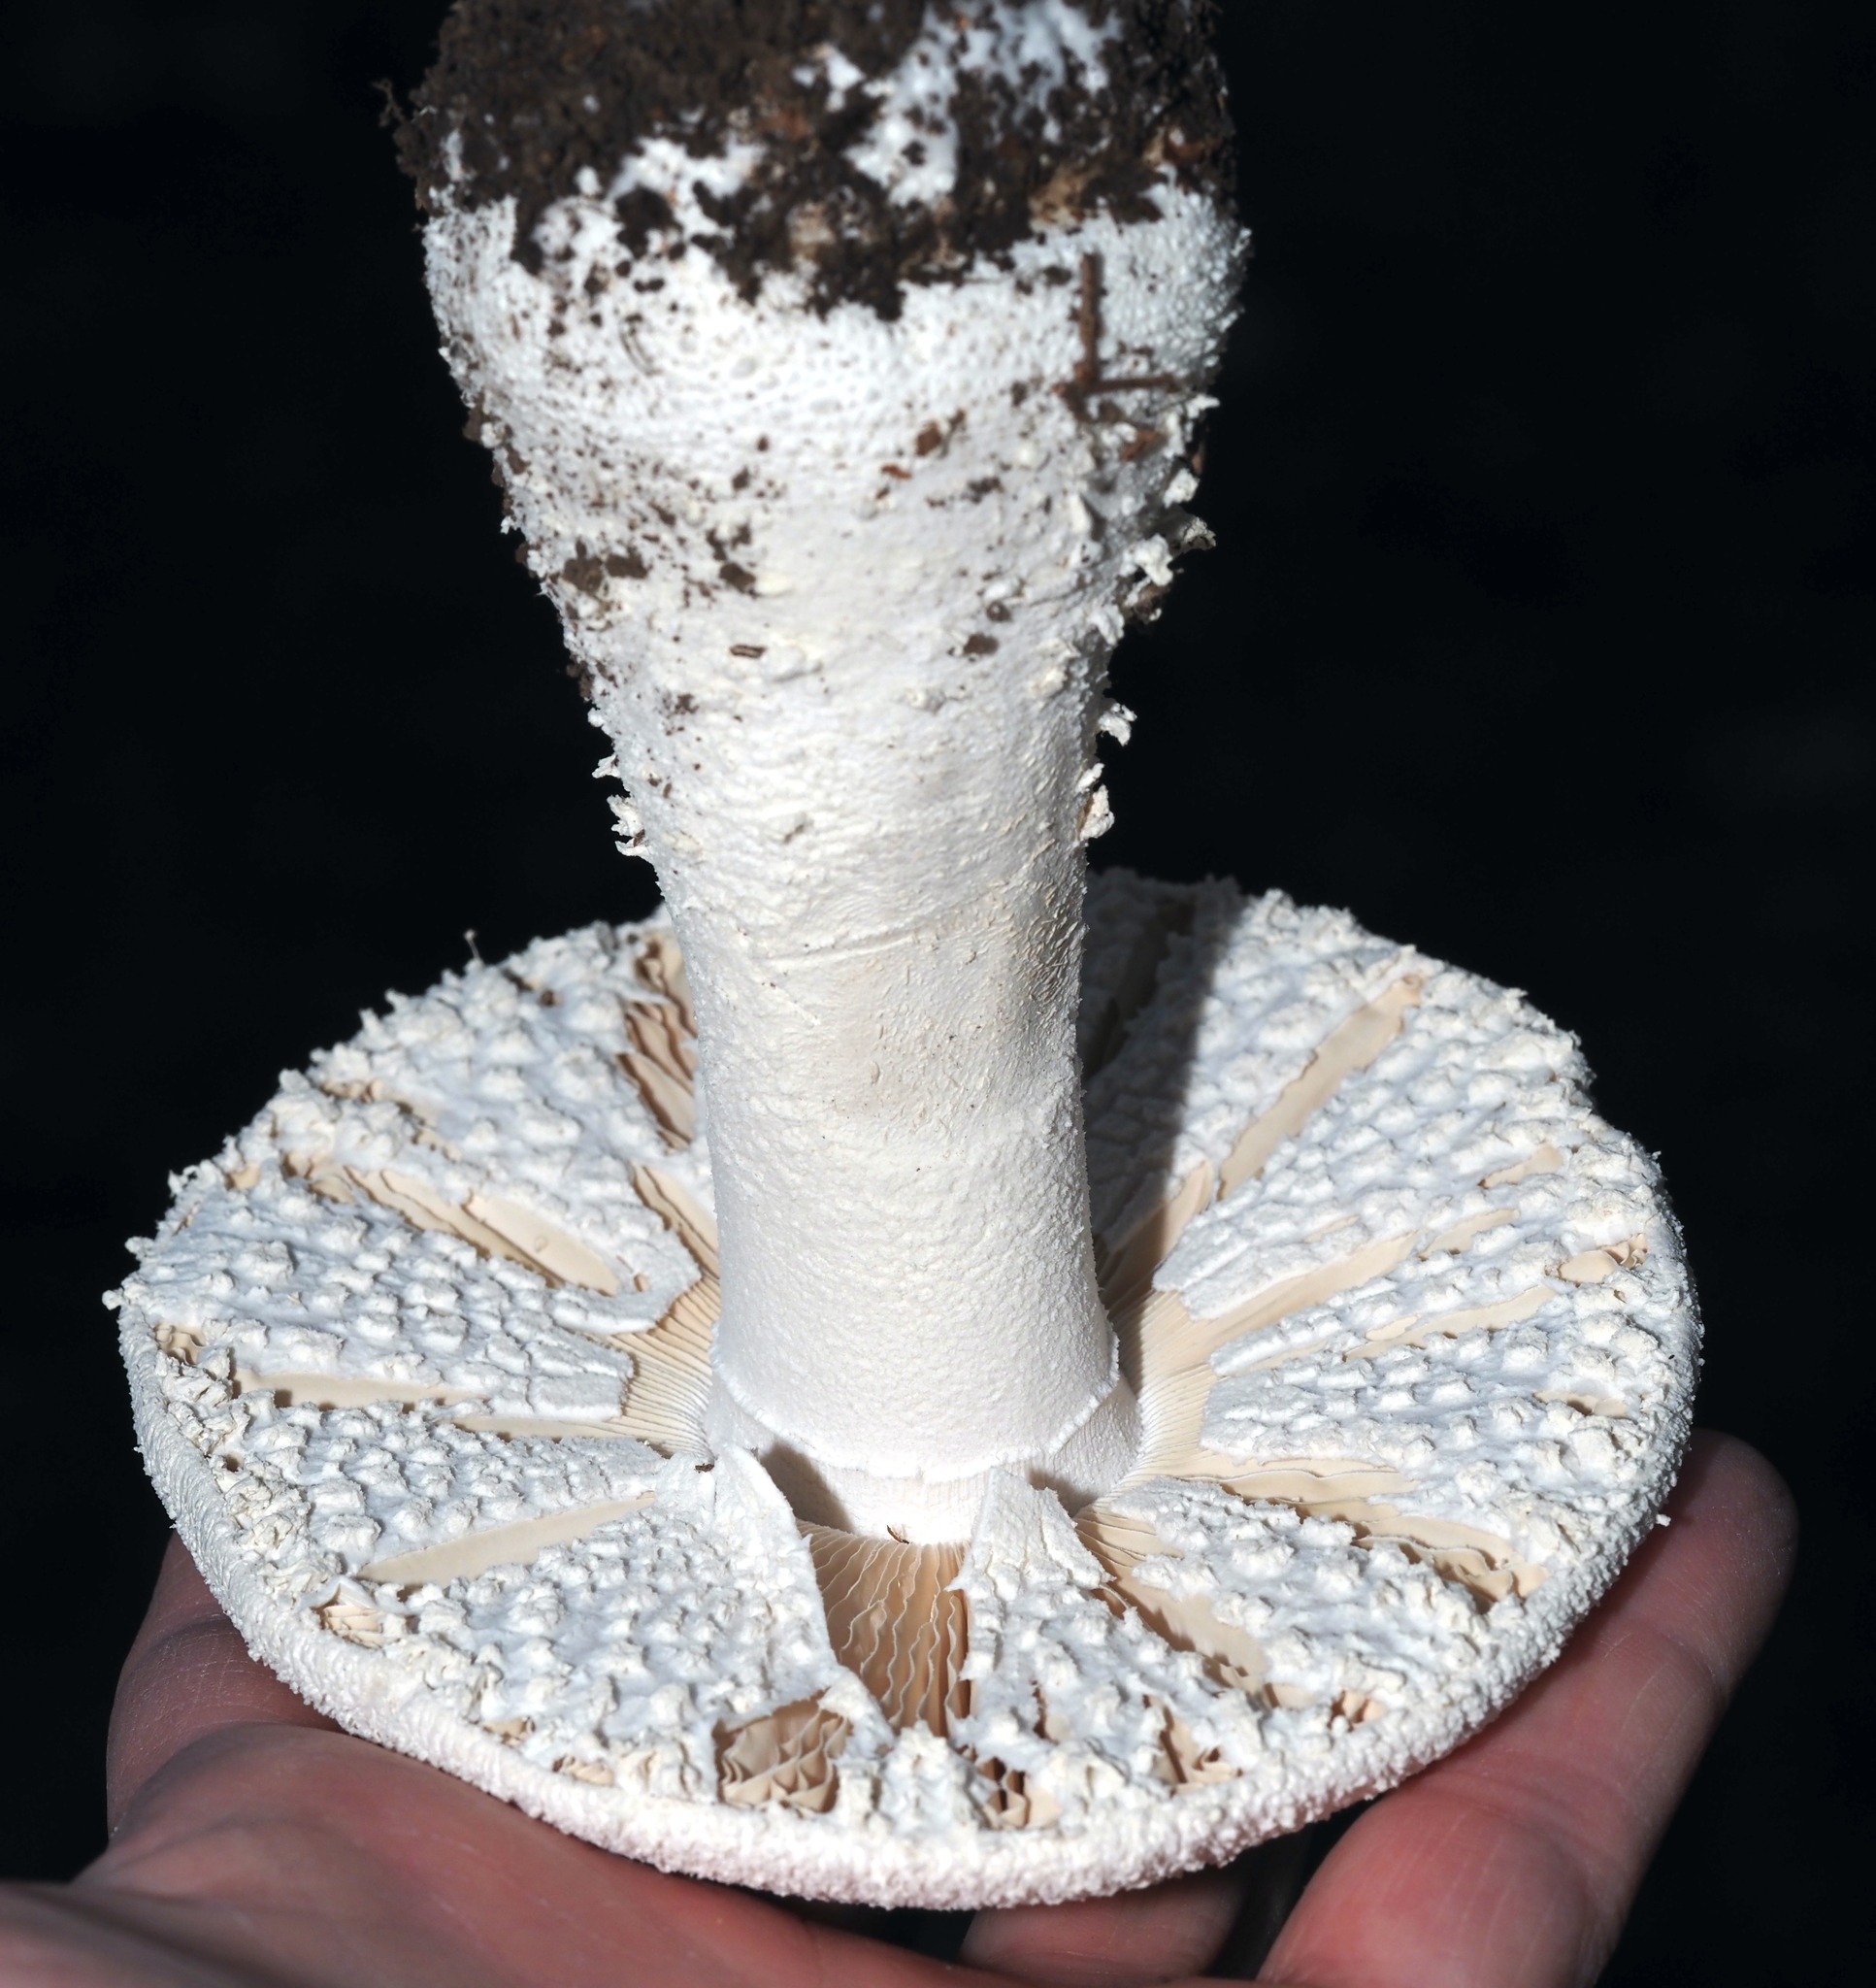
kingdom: Fungi
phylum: Basidiomycota
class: Agaricomycetes
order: Agaricales
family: Amanitaceae
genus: Amanita
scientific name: Amanita polypyramis
